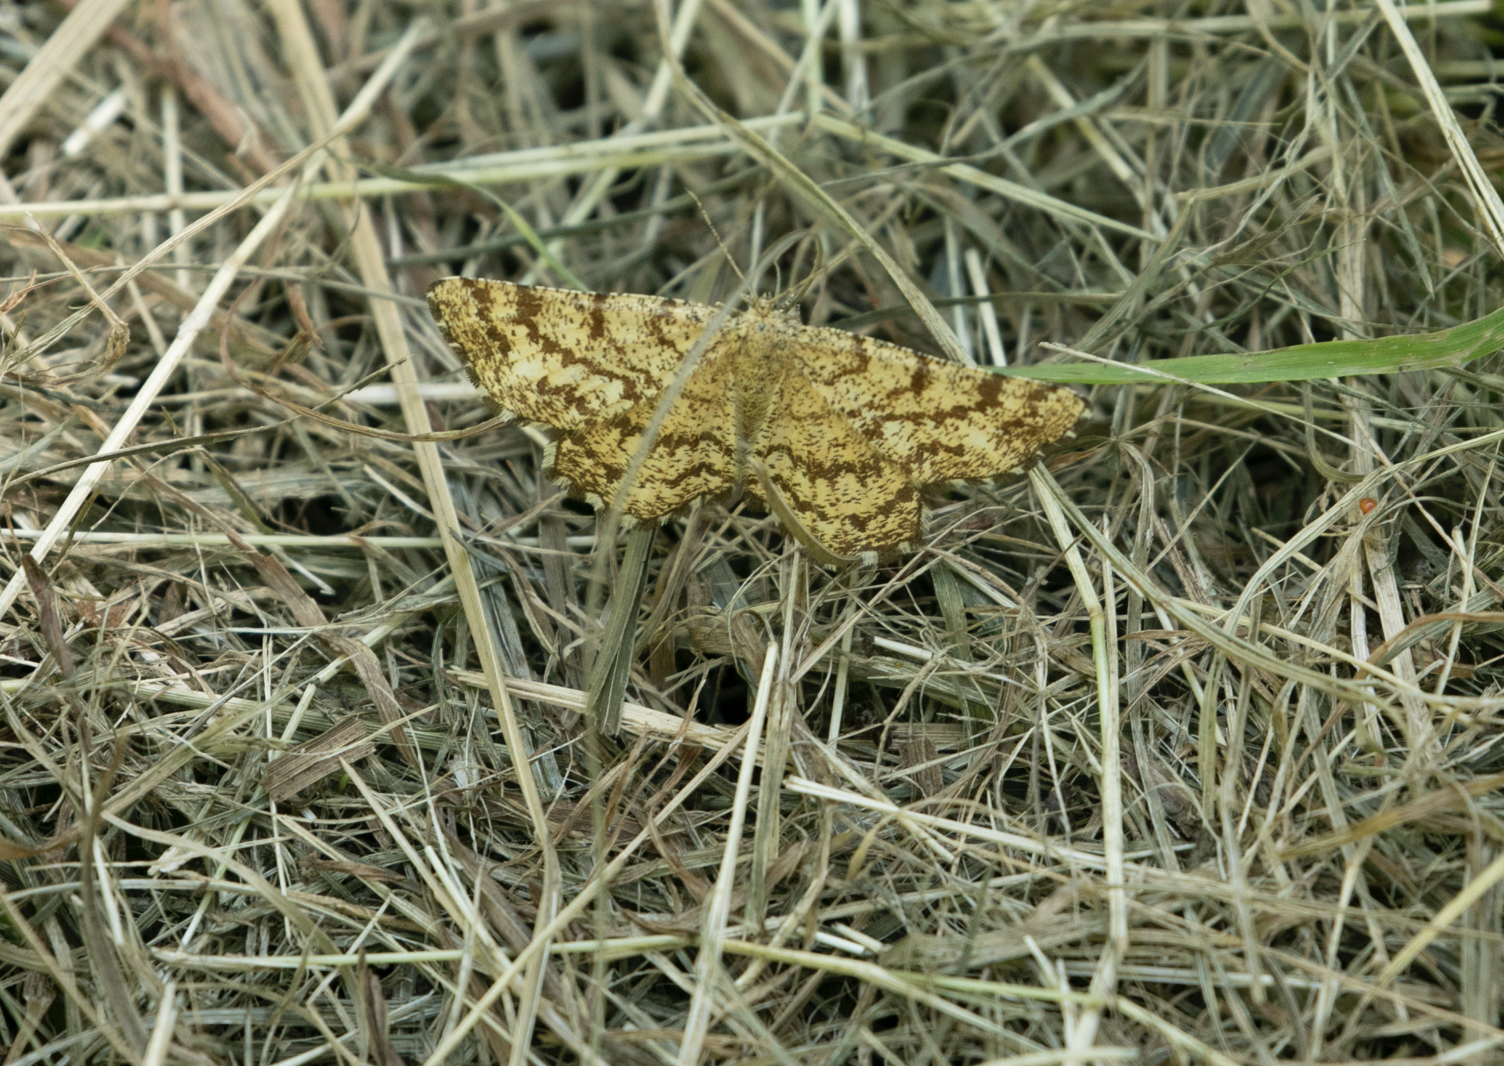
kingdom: Animalia
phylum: Arthropoda
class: Insecta
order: Lepidoptera
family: Geometridae
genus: Ematurga
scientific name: Ematurga atomaria
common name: Common heath
